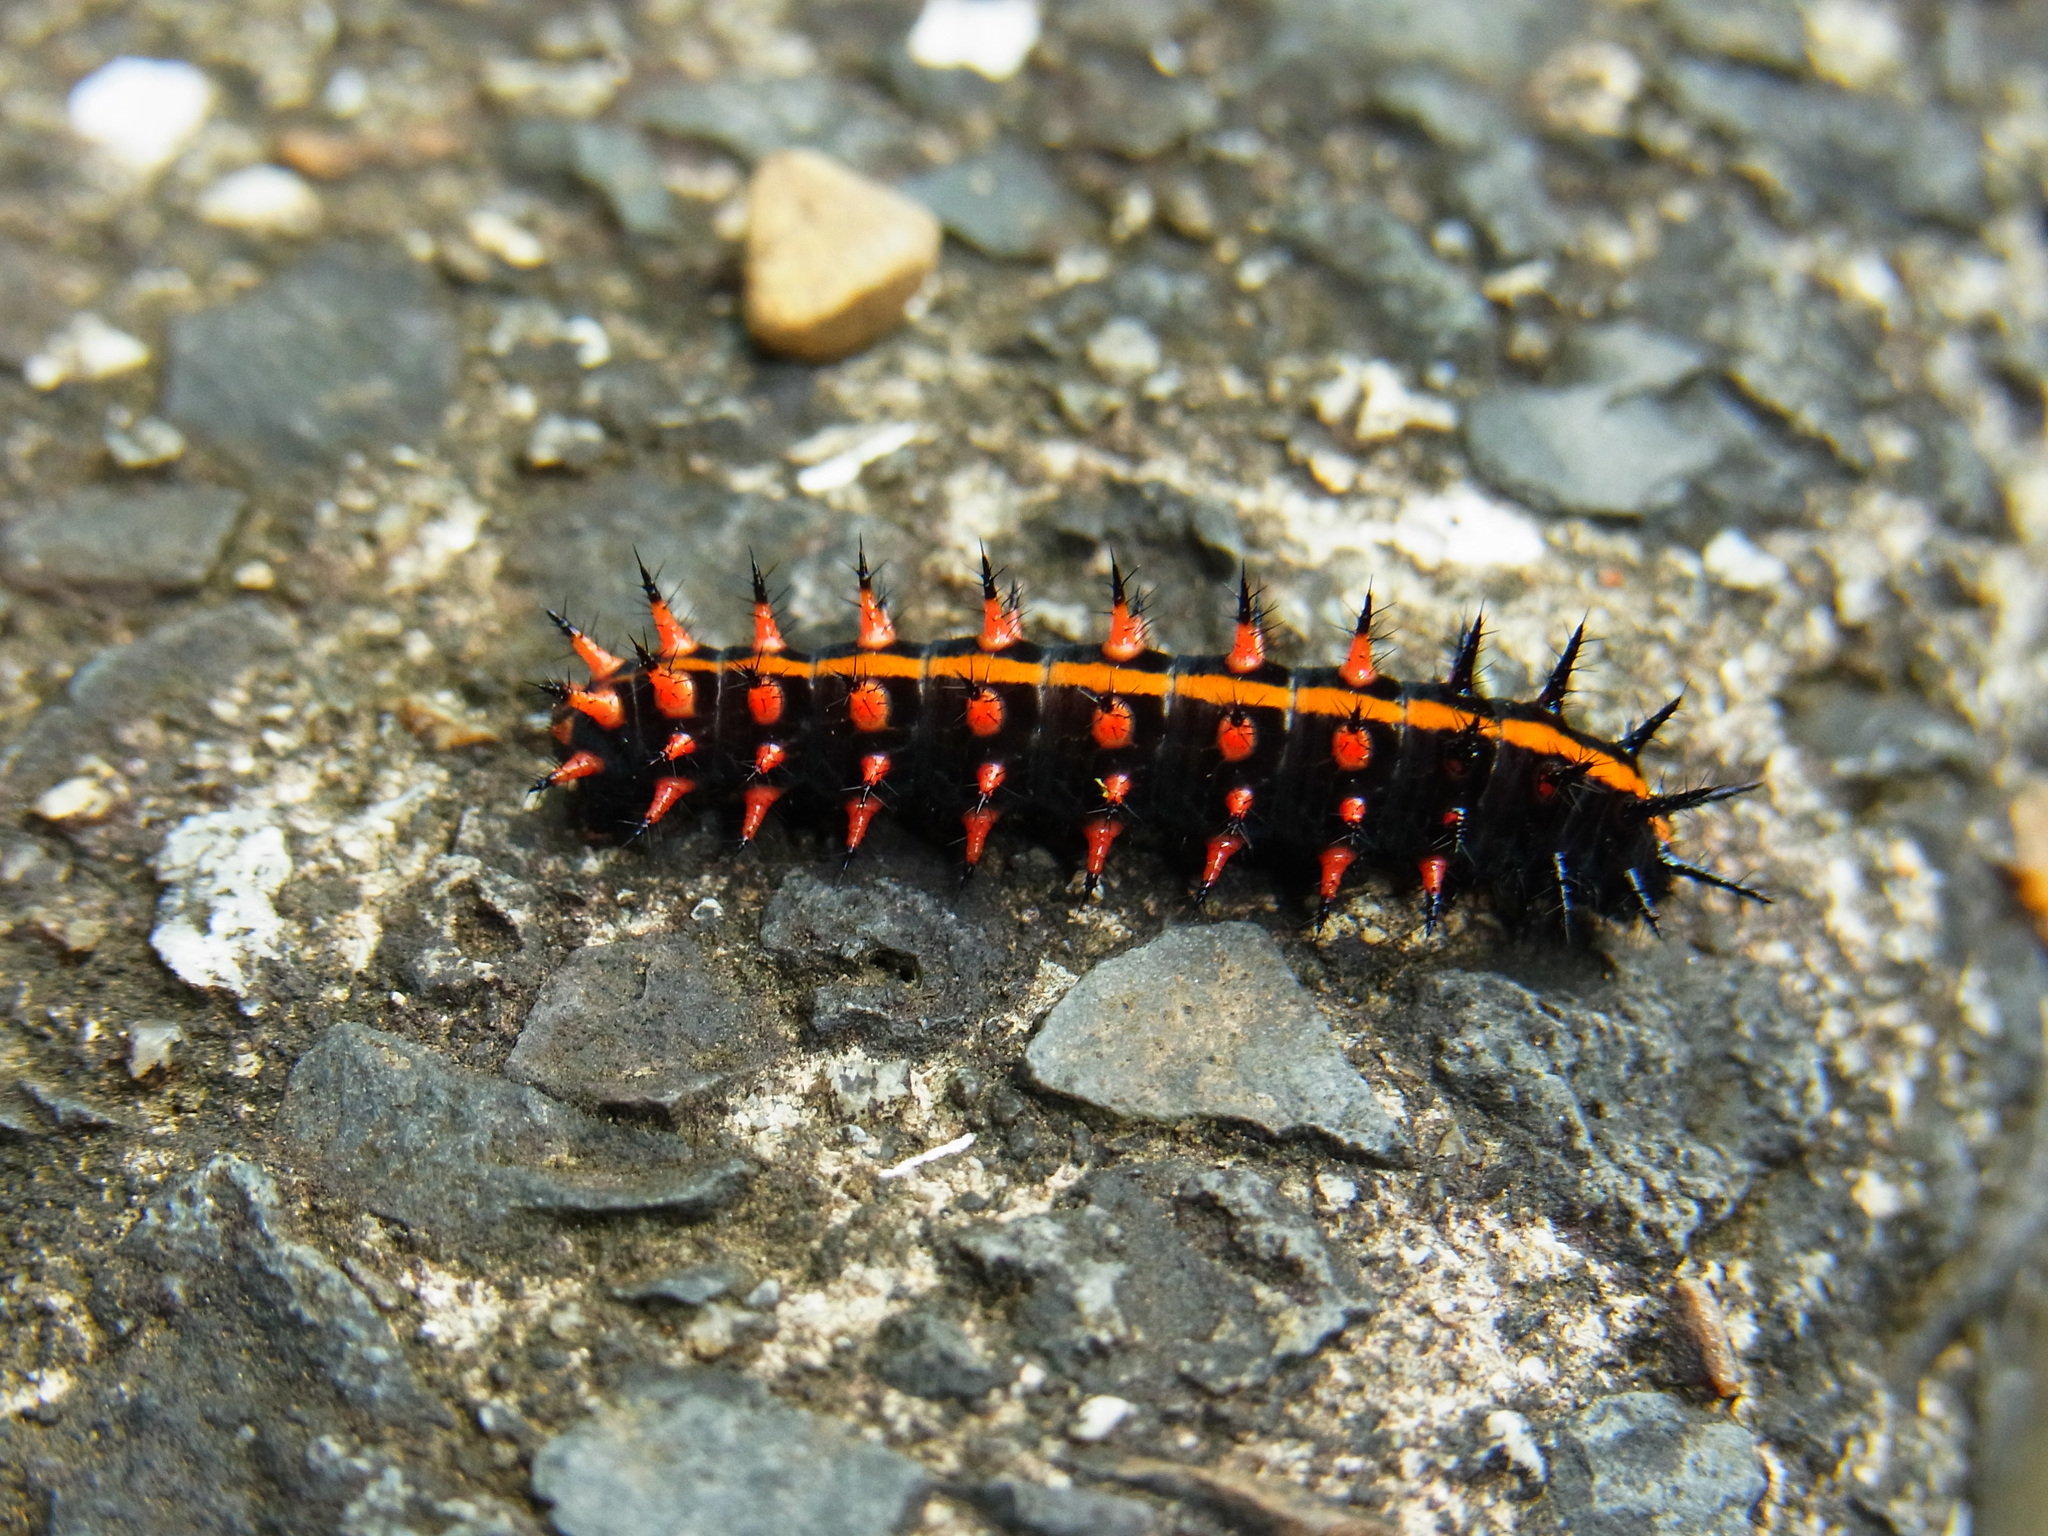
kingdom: Animalia
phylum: Arthropoda
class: Insecta
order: Lepidoptera
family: Nymphalidae
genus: Argynnis
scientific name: Argynnis hyperbius
